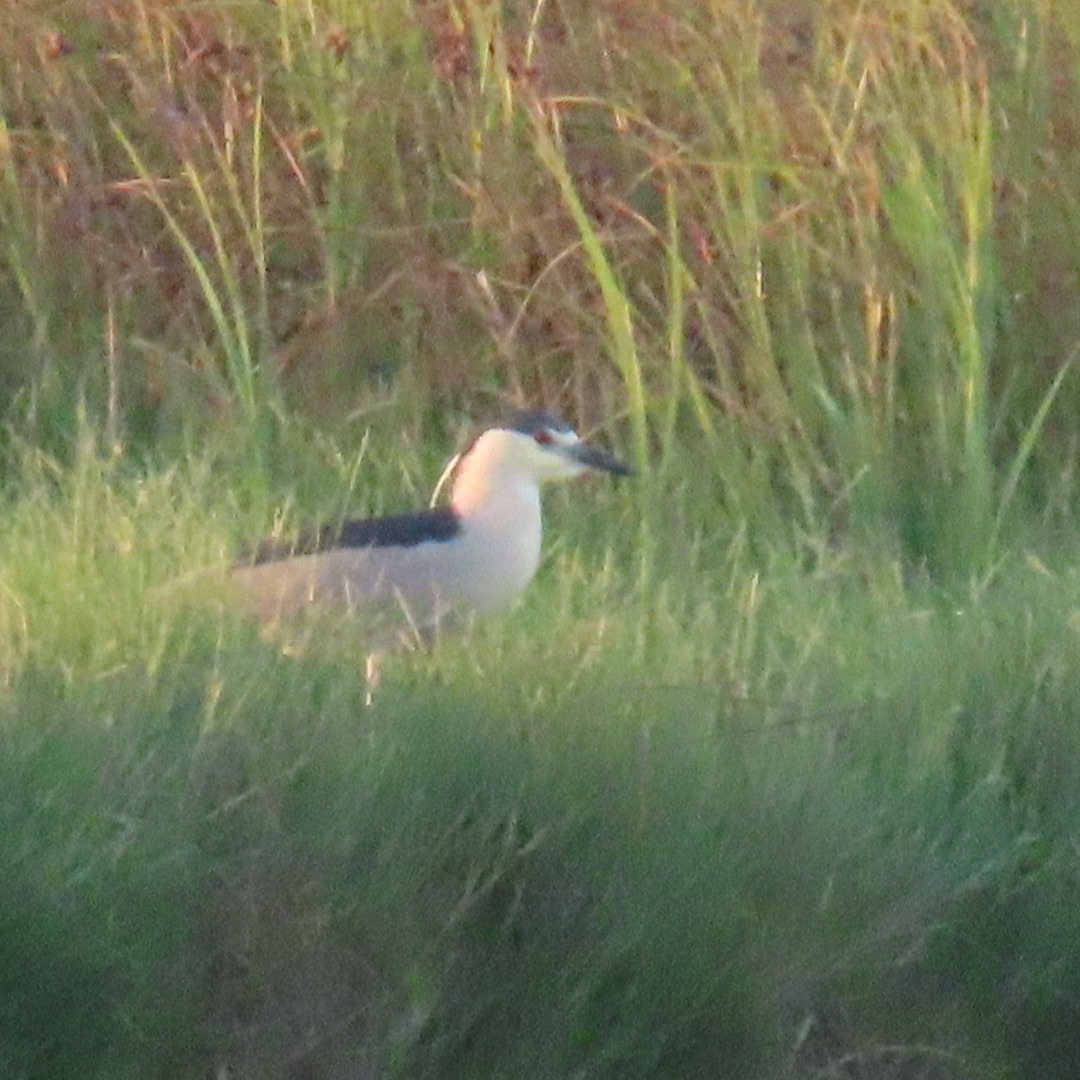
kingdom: Animalia
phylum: Chordata
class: Aves
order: Pelecaniformes
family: Ardeidae
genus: Nycticorax
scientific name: Nycticorax nycticorax
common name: Black-crowned night heron
